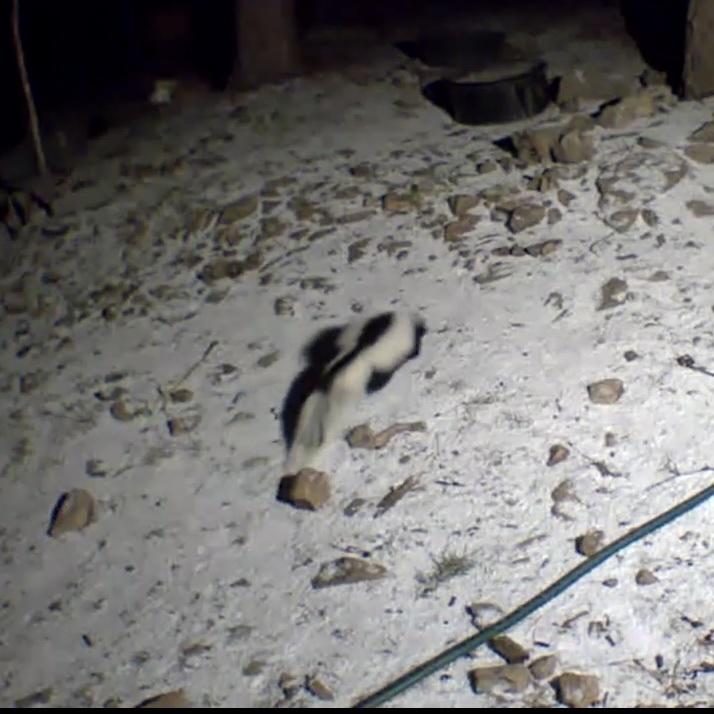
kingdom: Animalia
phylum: Chordata
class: Mammalia
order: Carnivora
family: Mephitidae
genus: Mephitis
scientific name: Mephitis mephitis
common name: Striped skunk
